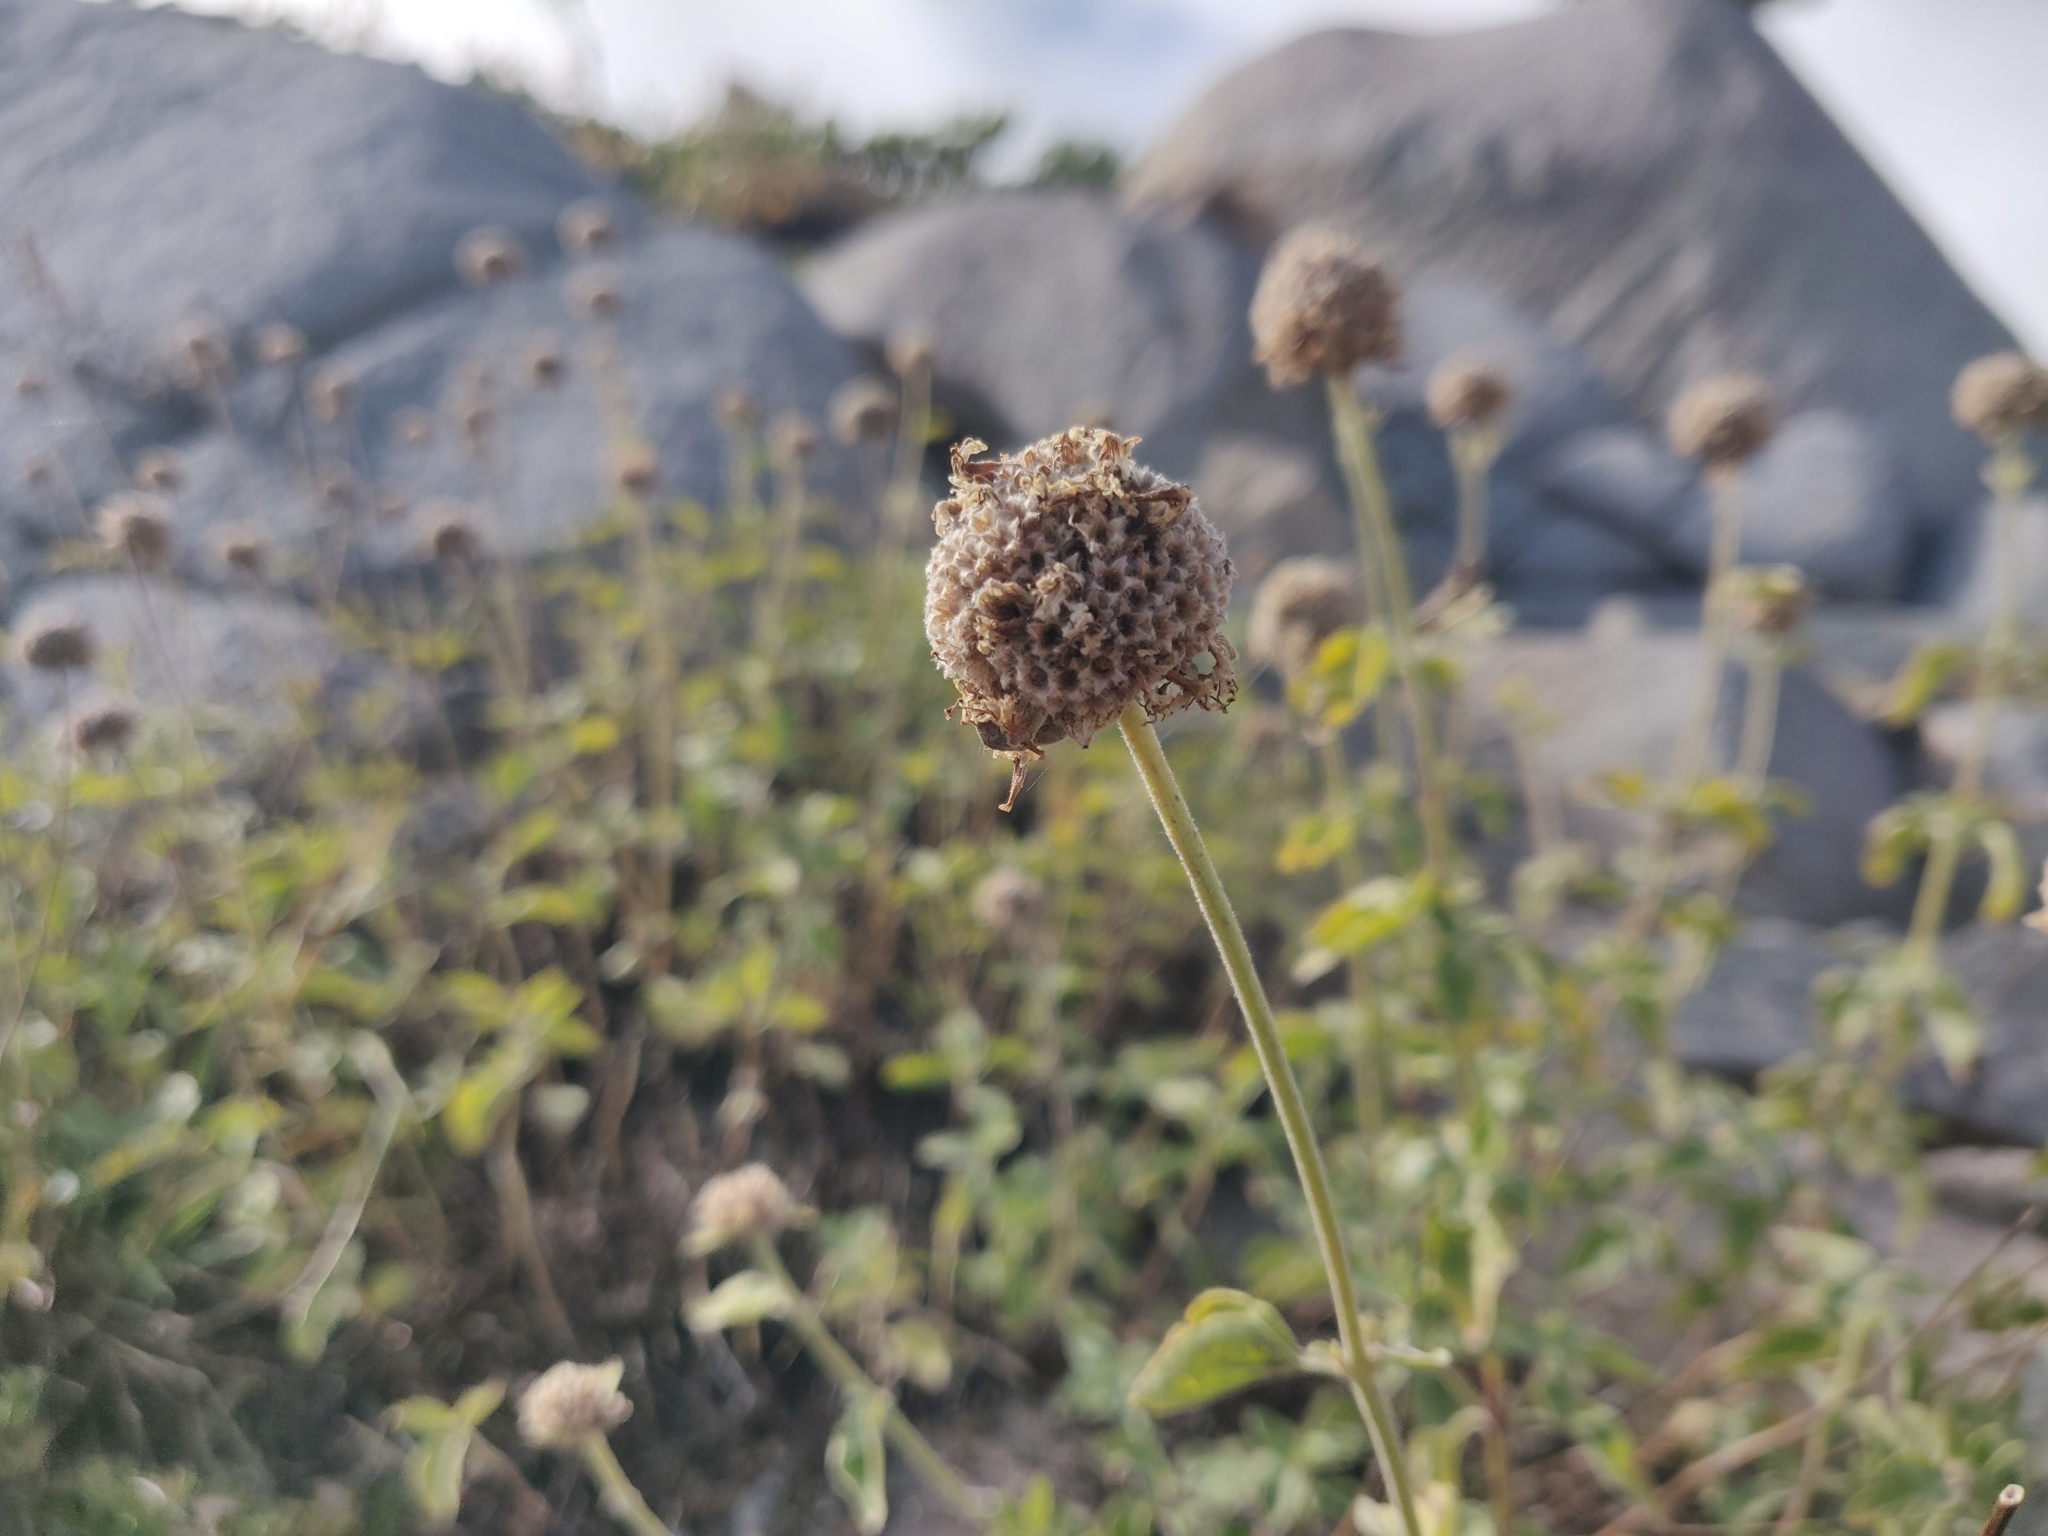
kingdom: Plantae
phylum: Tracheophyta
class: Magnoliopsida
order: Lamiales
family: Lamiaceae
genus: Monardella
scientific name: Monardella odoratissima
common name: Pacific monardella
